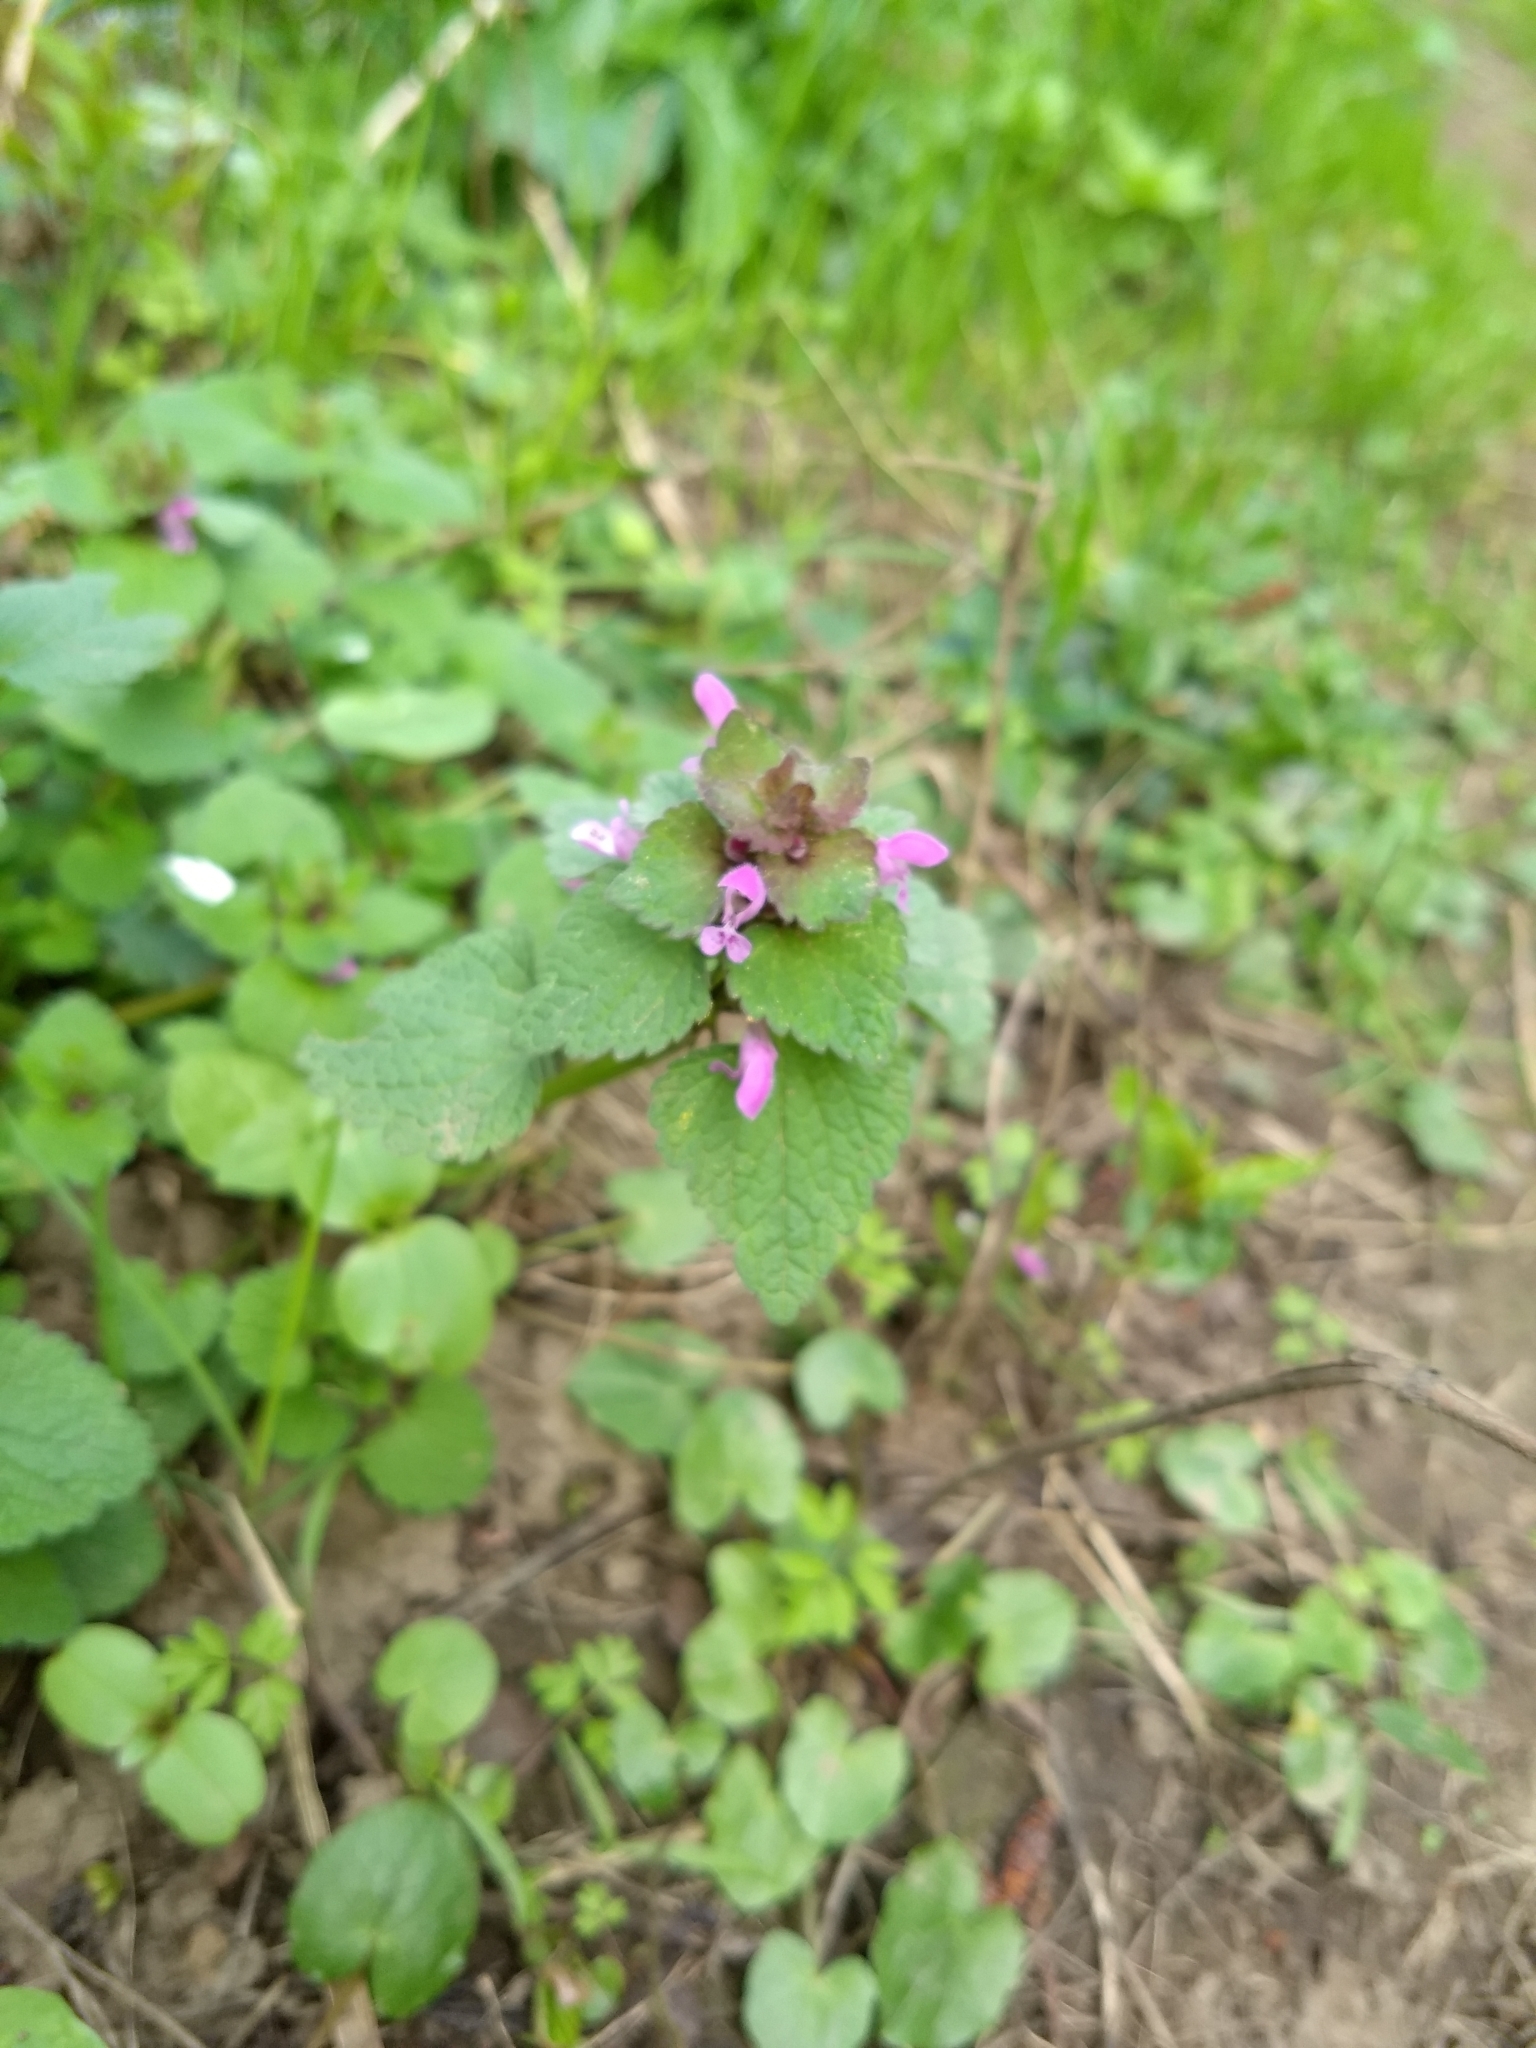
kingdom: Plantae
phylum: Tracheophyta
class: Magnoliopsida
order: Lamiales
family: Lamiaceae
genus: Lamium
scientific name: Lamium purpureum
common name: Red dead-nettle
